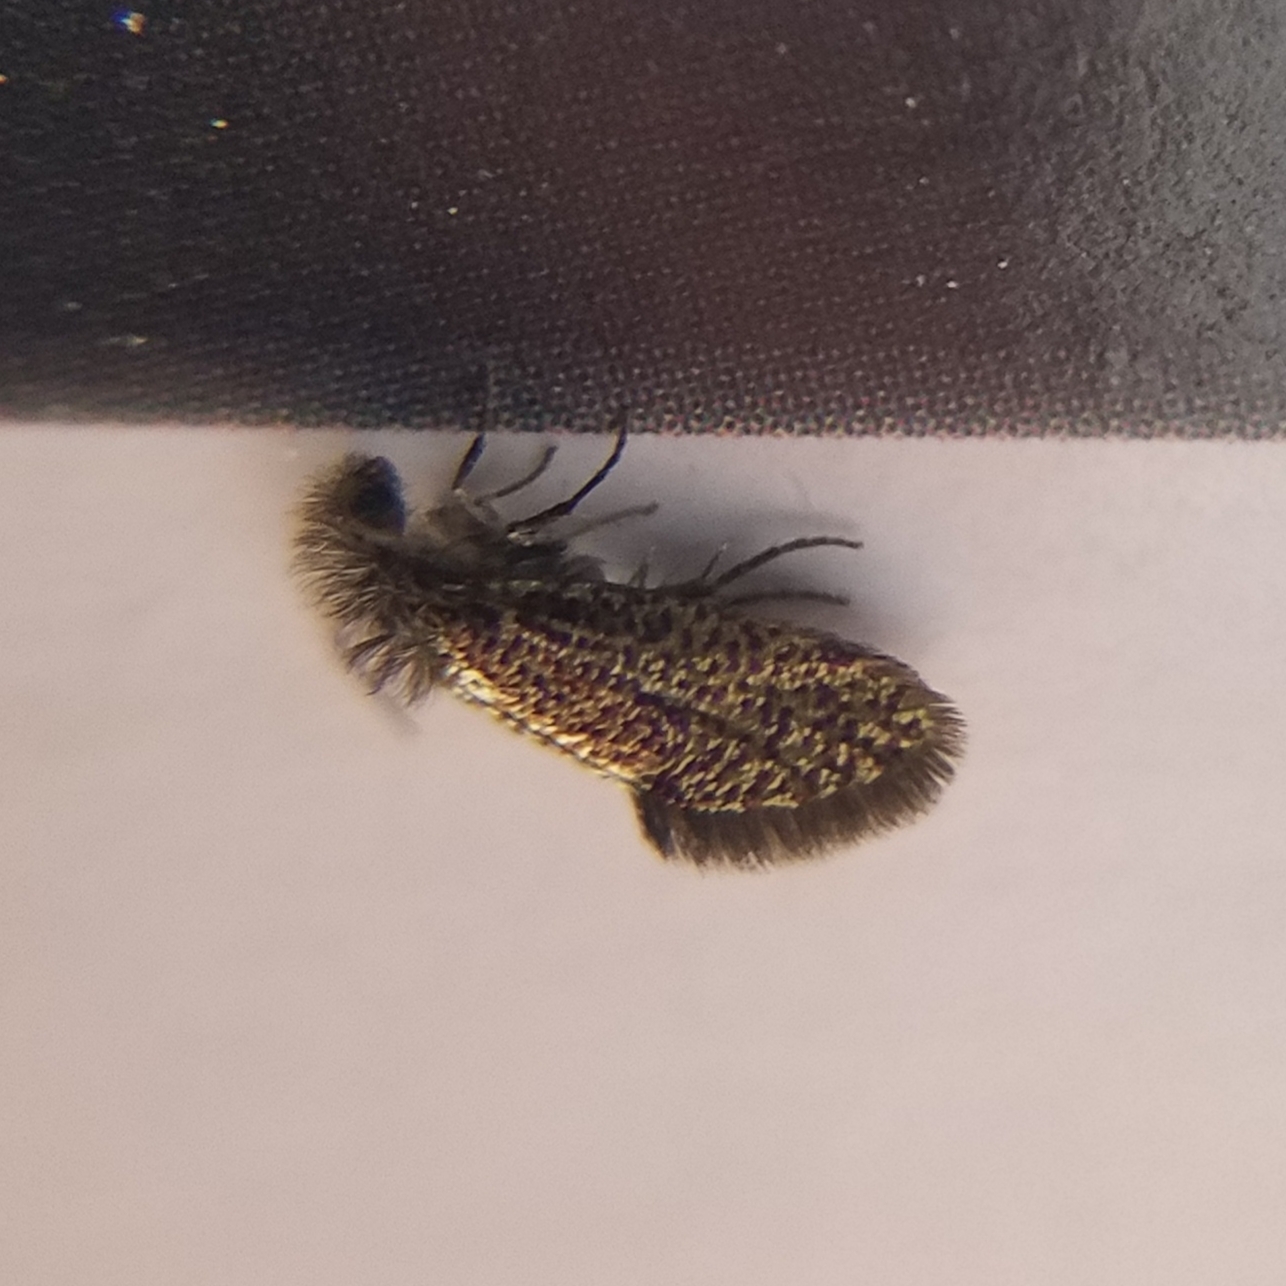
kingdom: Animalia
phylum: Arthropoda
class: Insecta
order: Lepidoptera
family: Eriocraniidae
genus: Dyseriocrania
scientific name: Dyseriocrania griseocapitella
